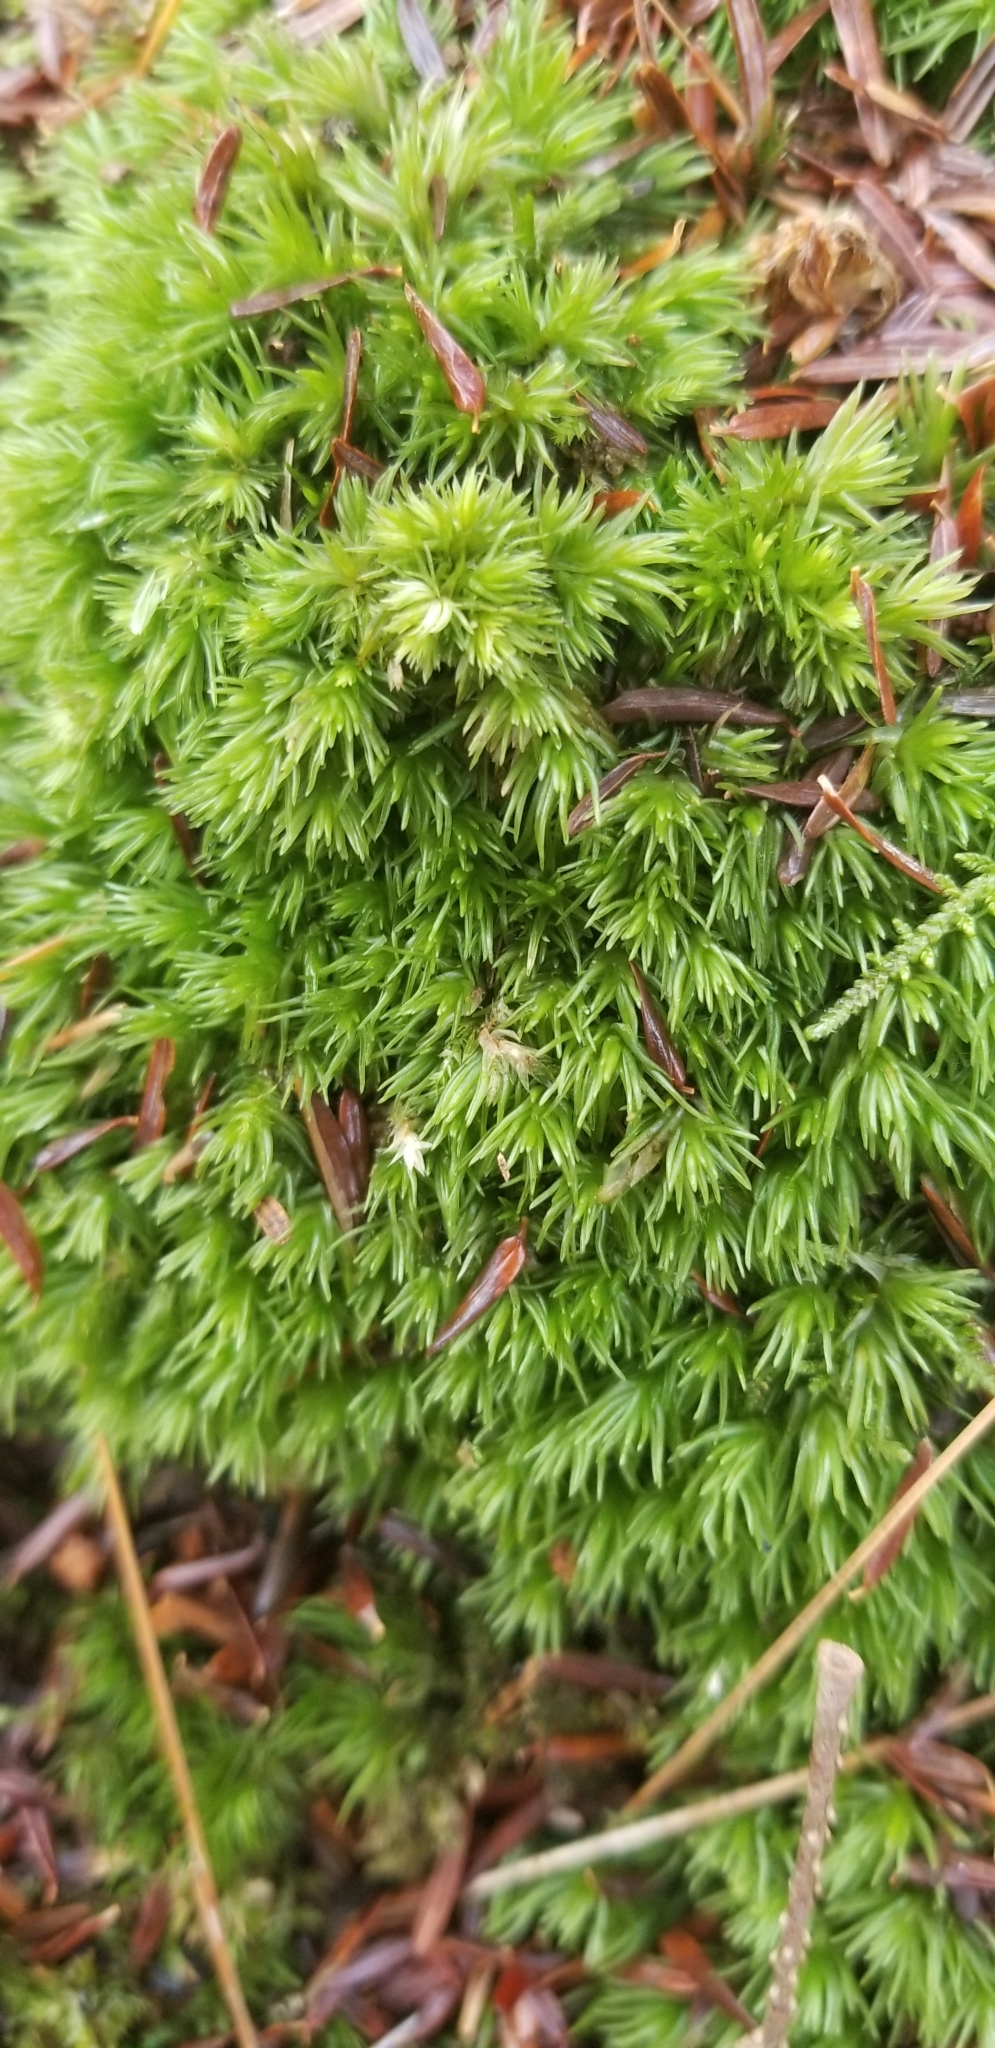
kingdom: Plantae
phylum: Bryophyta
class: Bryopsida
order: Dicranales
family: Leucobryaceae
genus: Leucobryum
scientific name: Leucobryum glaucum
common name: Large white-moss
